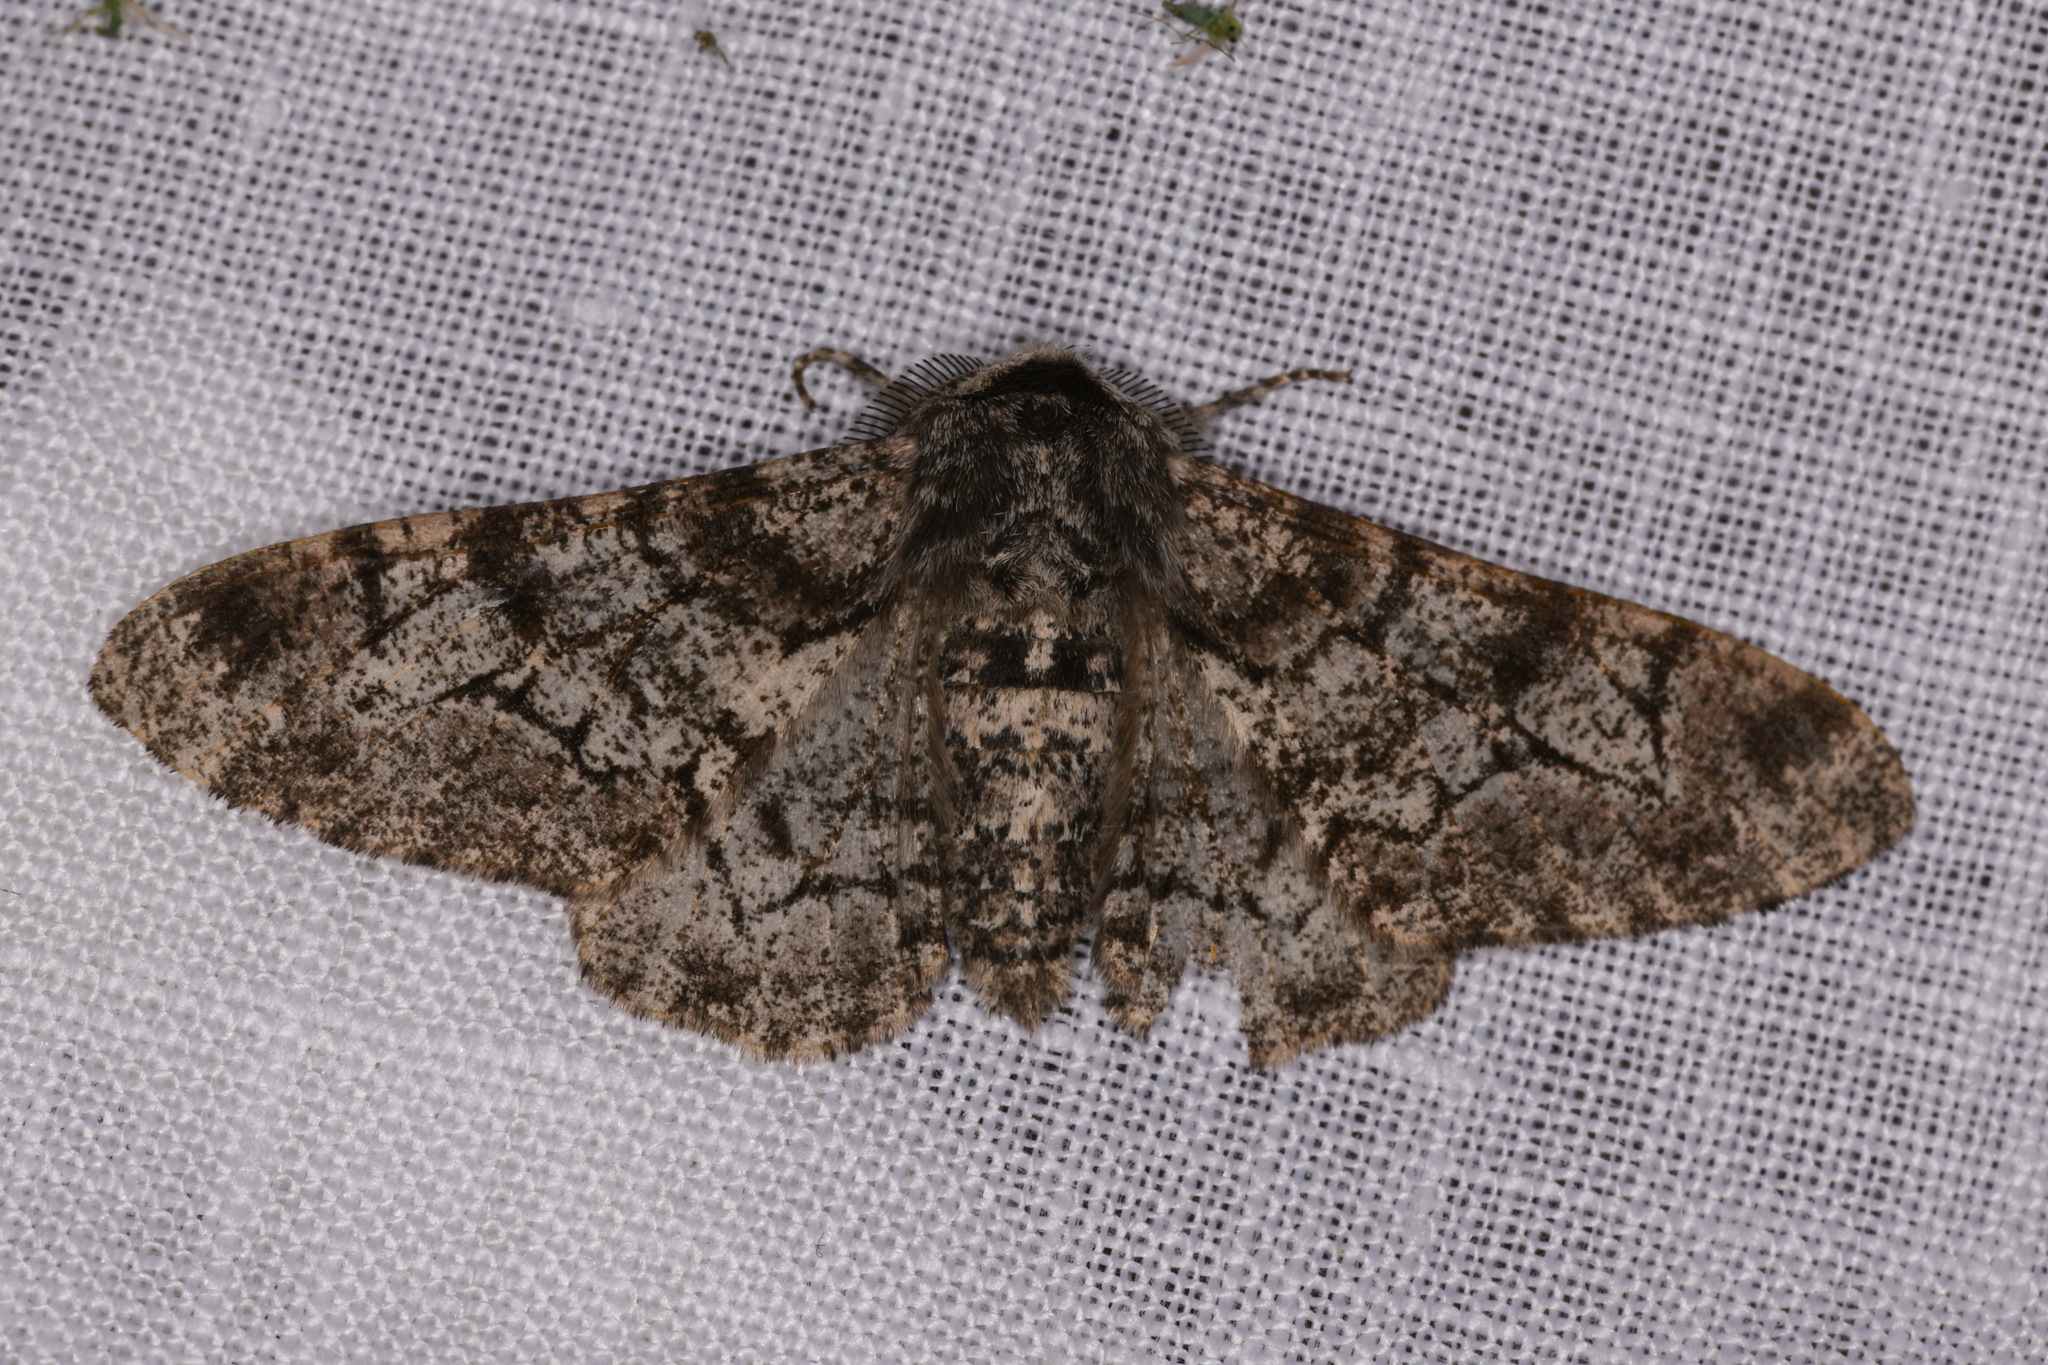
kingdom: Animalia
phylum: Arthropoda
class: Insecta
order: Lepidoptera
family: Geometridae
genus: Biston
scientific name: Biston betularia
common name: Peppered moth
